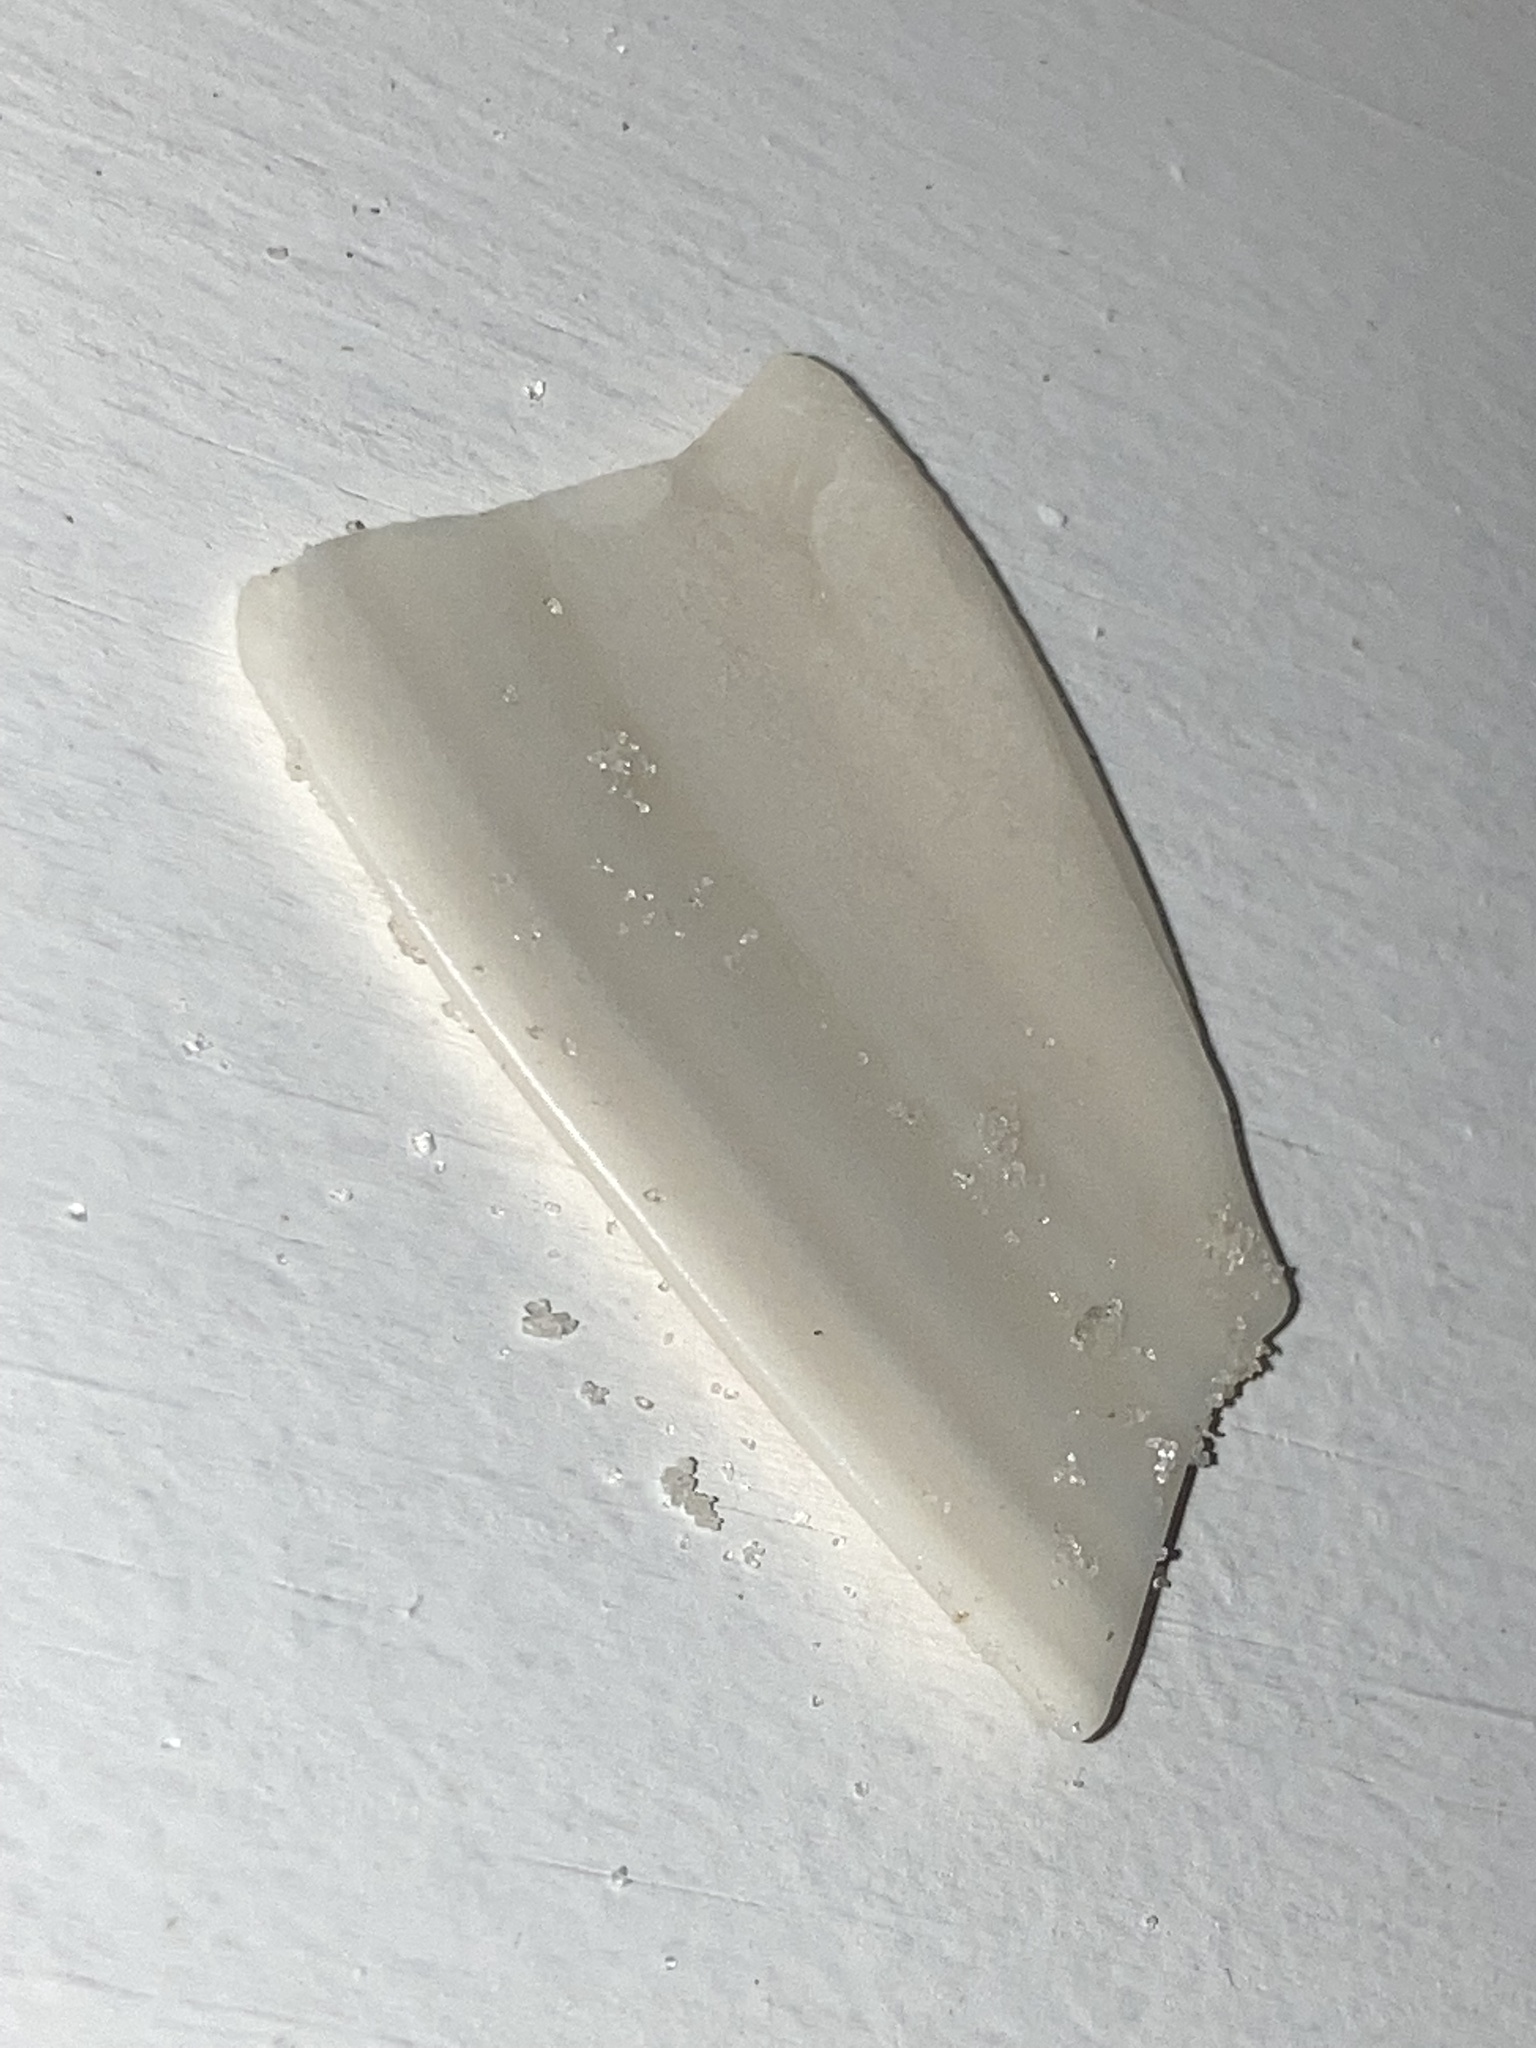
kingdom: Animalia
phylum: Mollusca
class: Bivalvia
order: Venerida
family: Veneridae
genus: Macrocallista
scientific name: Macrocallista nimbosa
